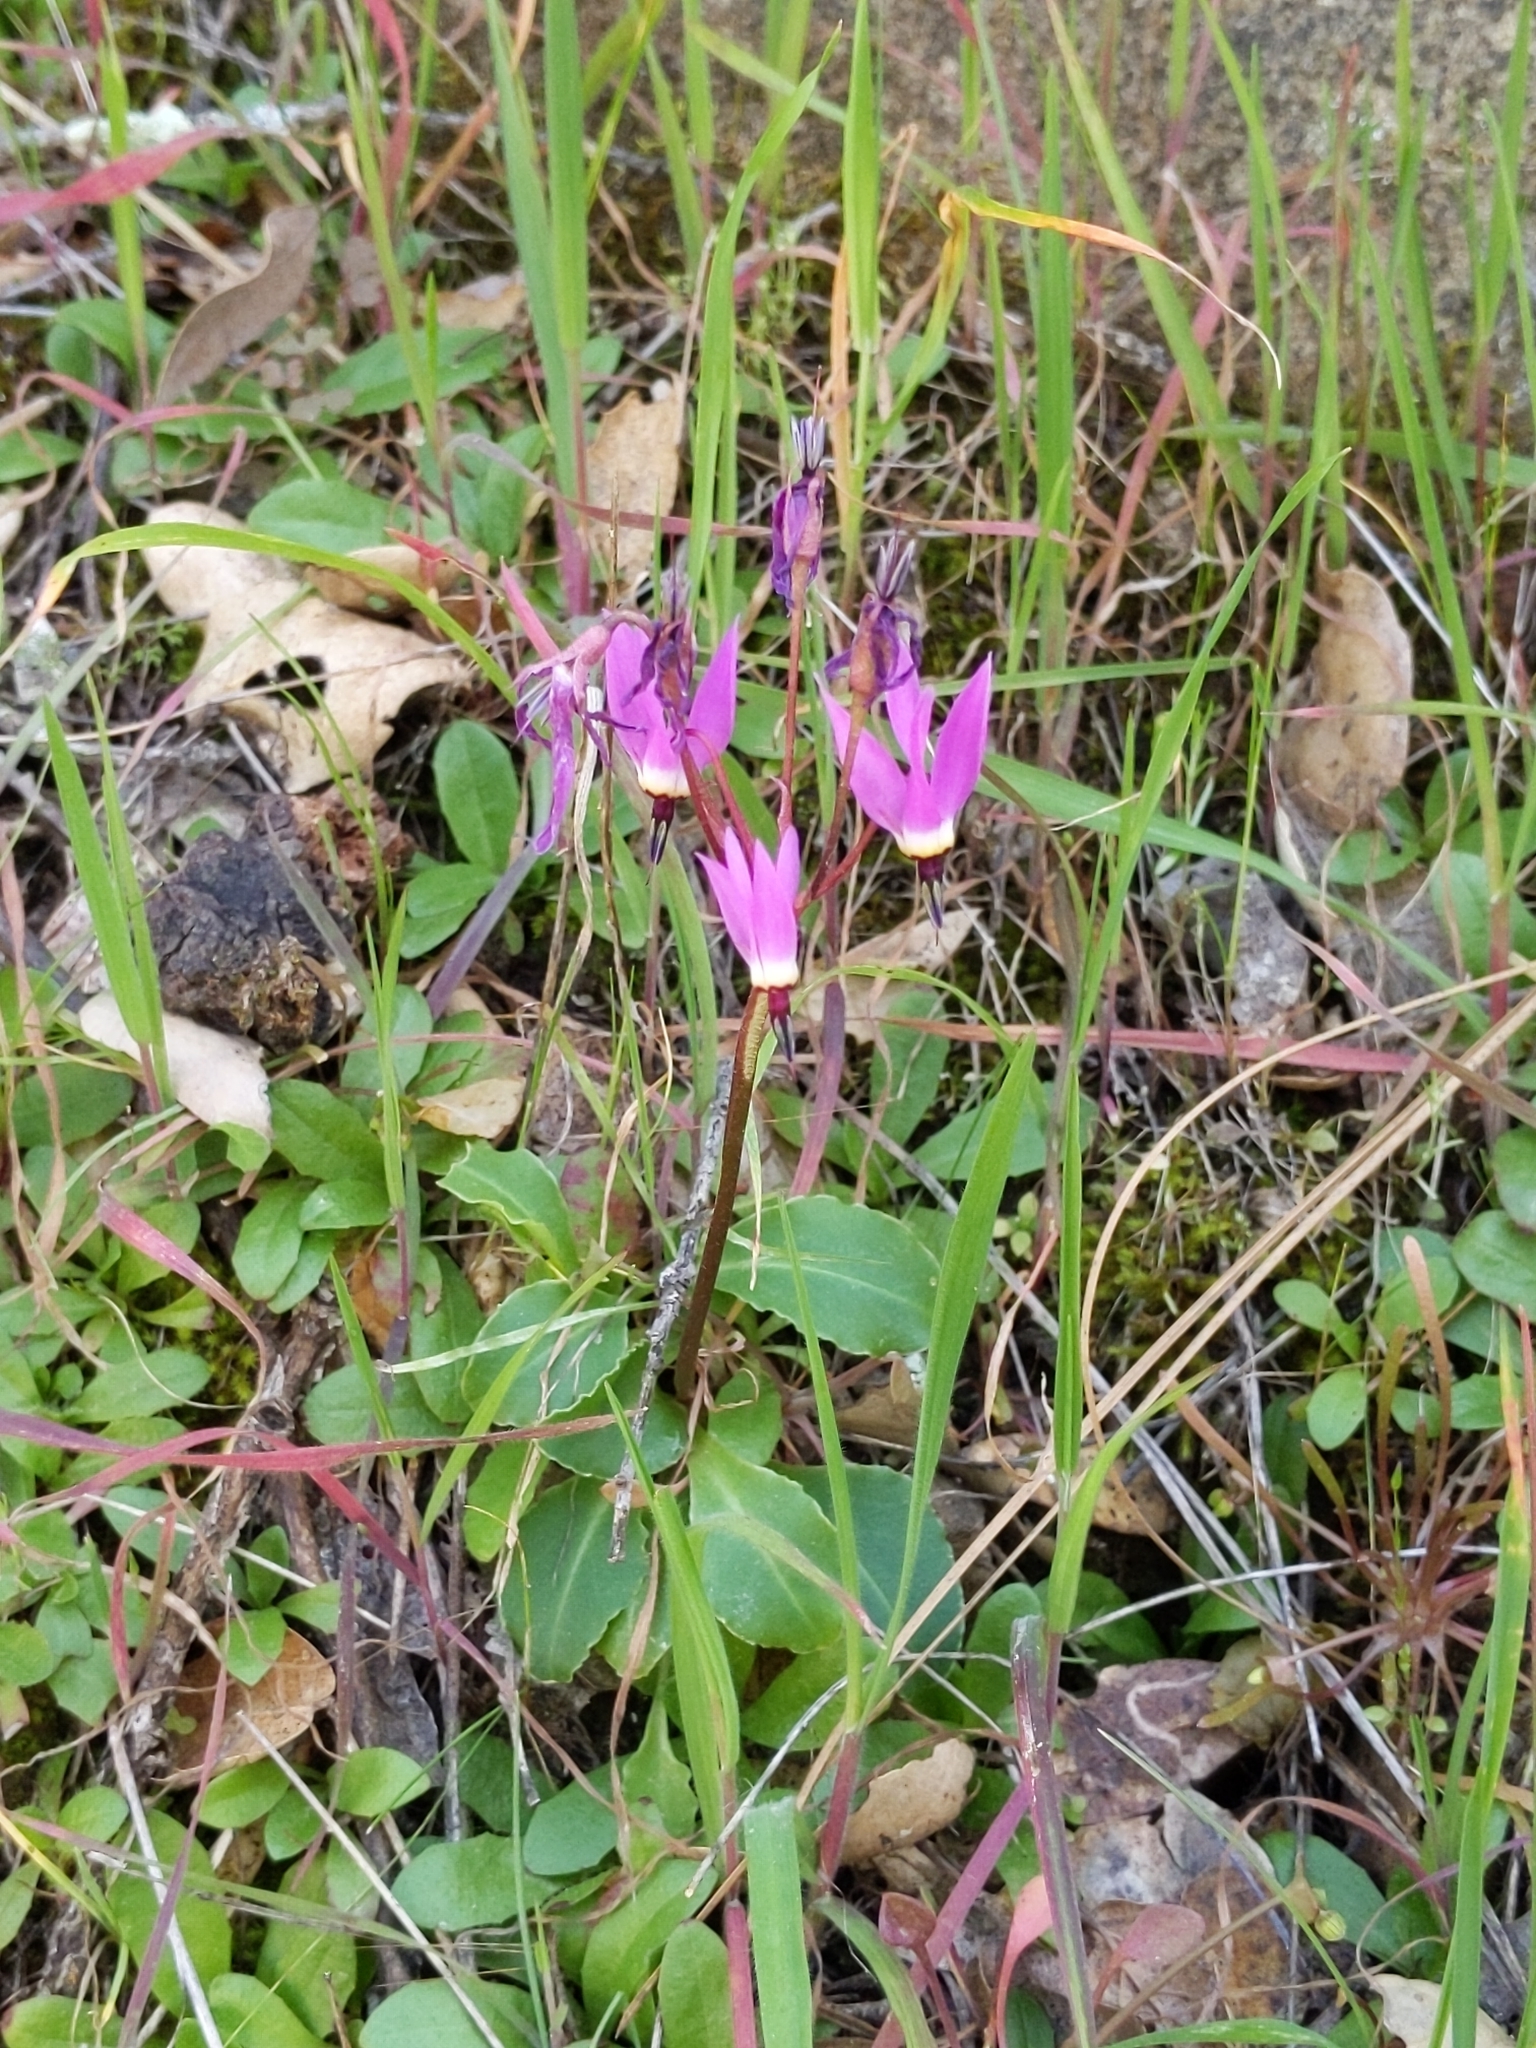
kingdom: Plantae
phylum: Tracheophyta
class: Magnoliopsida
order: Ericales
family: Primulaceae
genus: Dodecatheon
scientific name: Dodecatheon hendersonii
